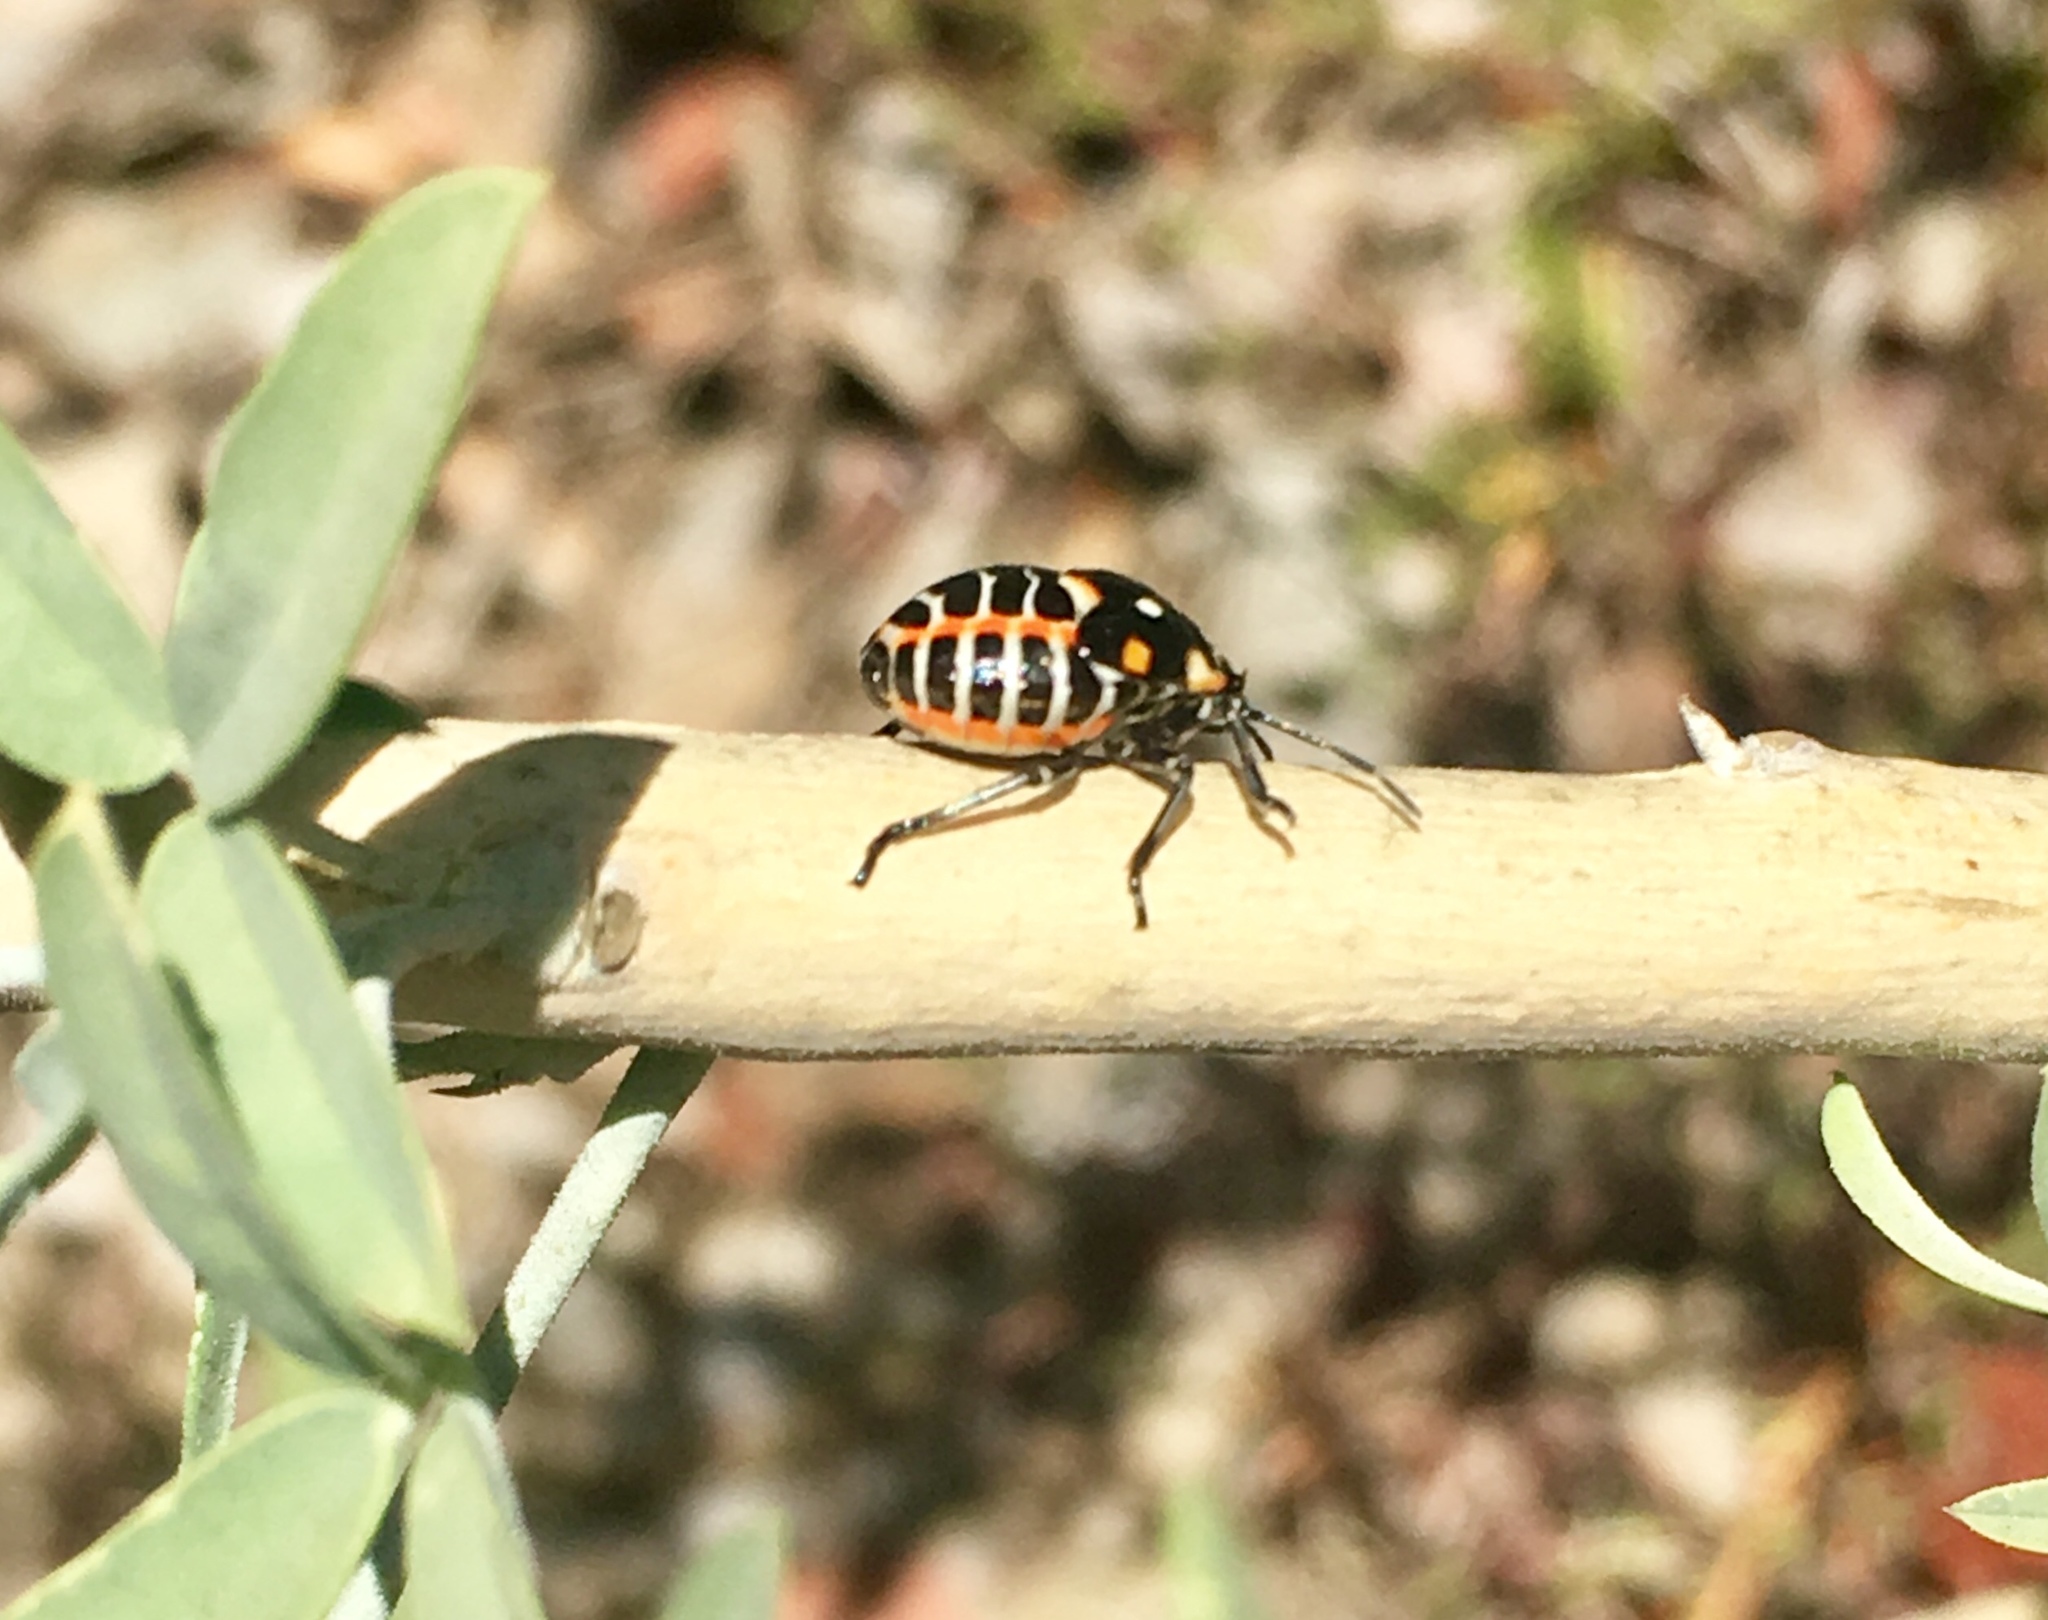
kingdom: Animalia
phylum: Arthropoda
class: Insecta
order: Hemiptera
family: Pentatomidae
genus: Murgantia
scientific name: Murgantia histrionica
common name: Harlequin bug
